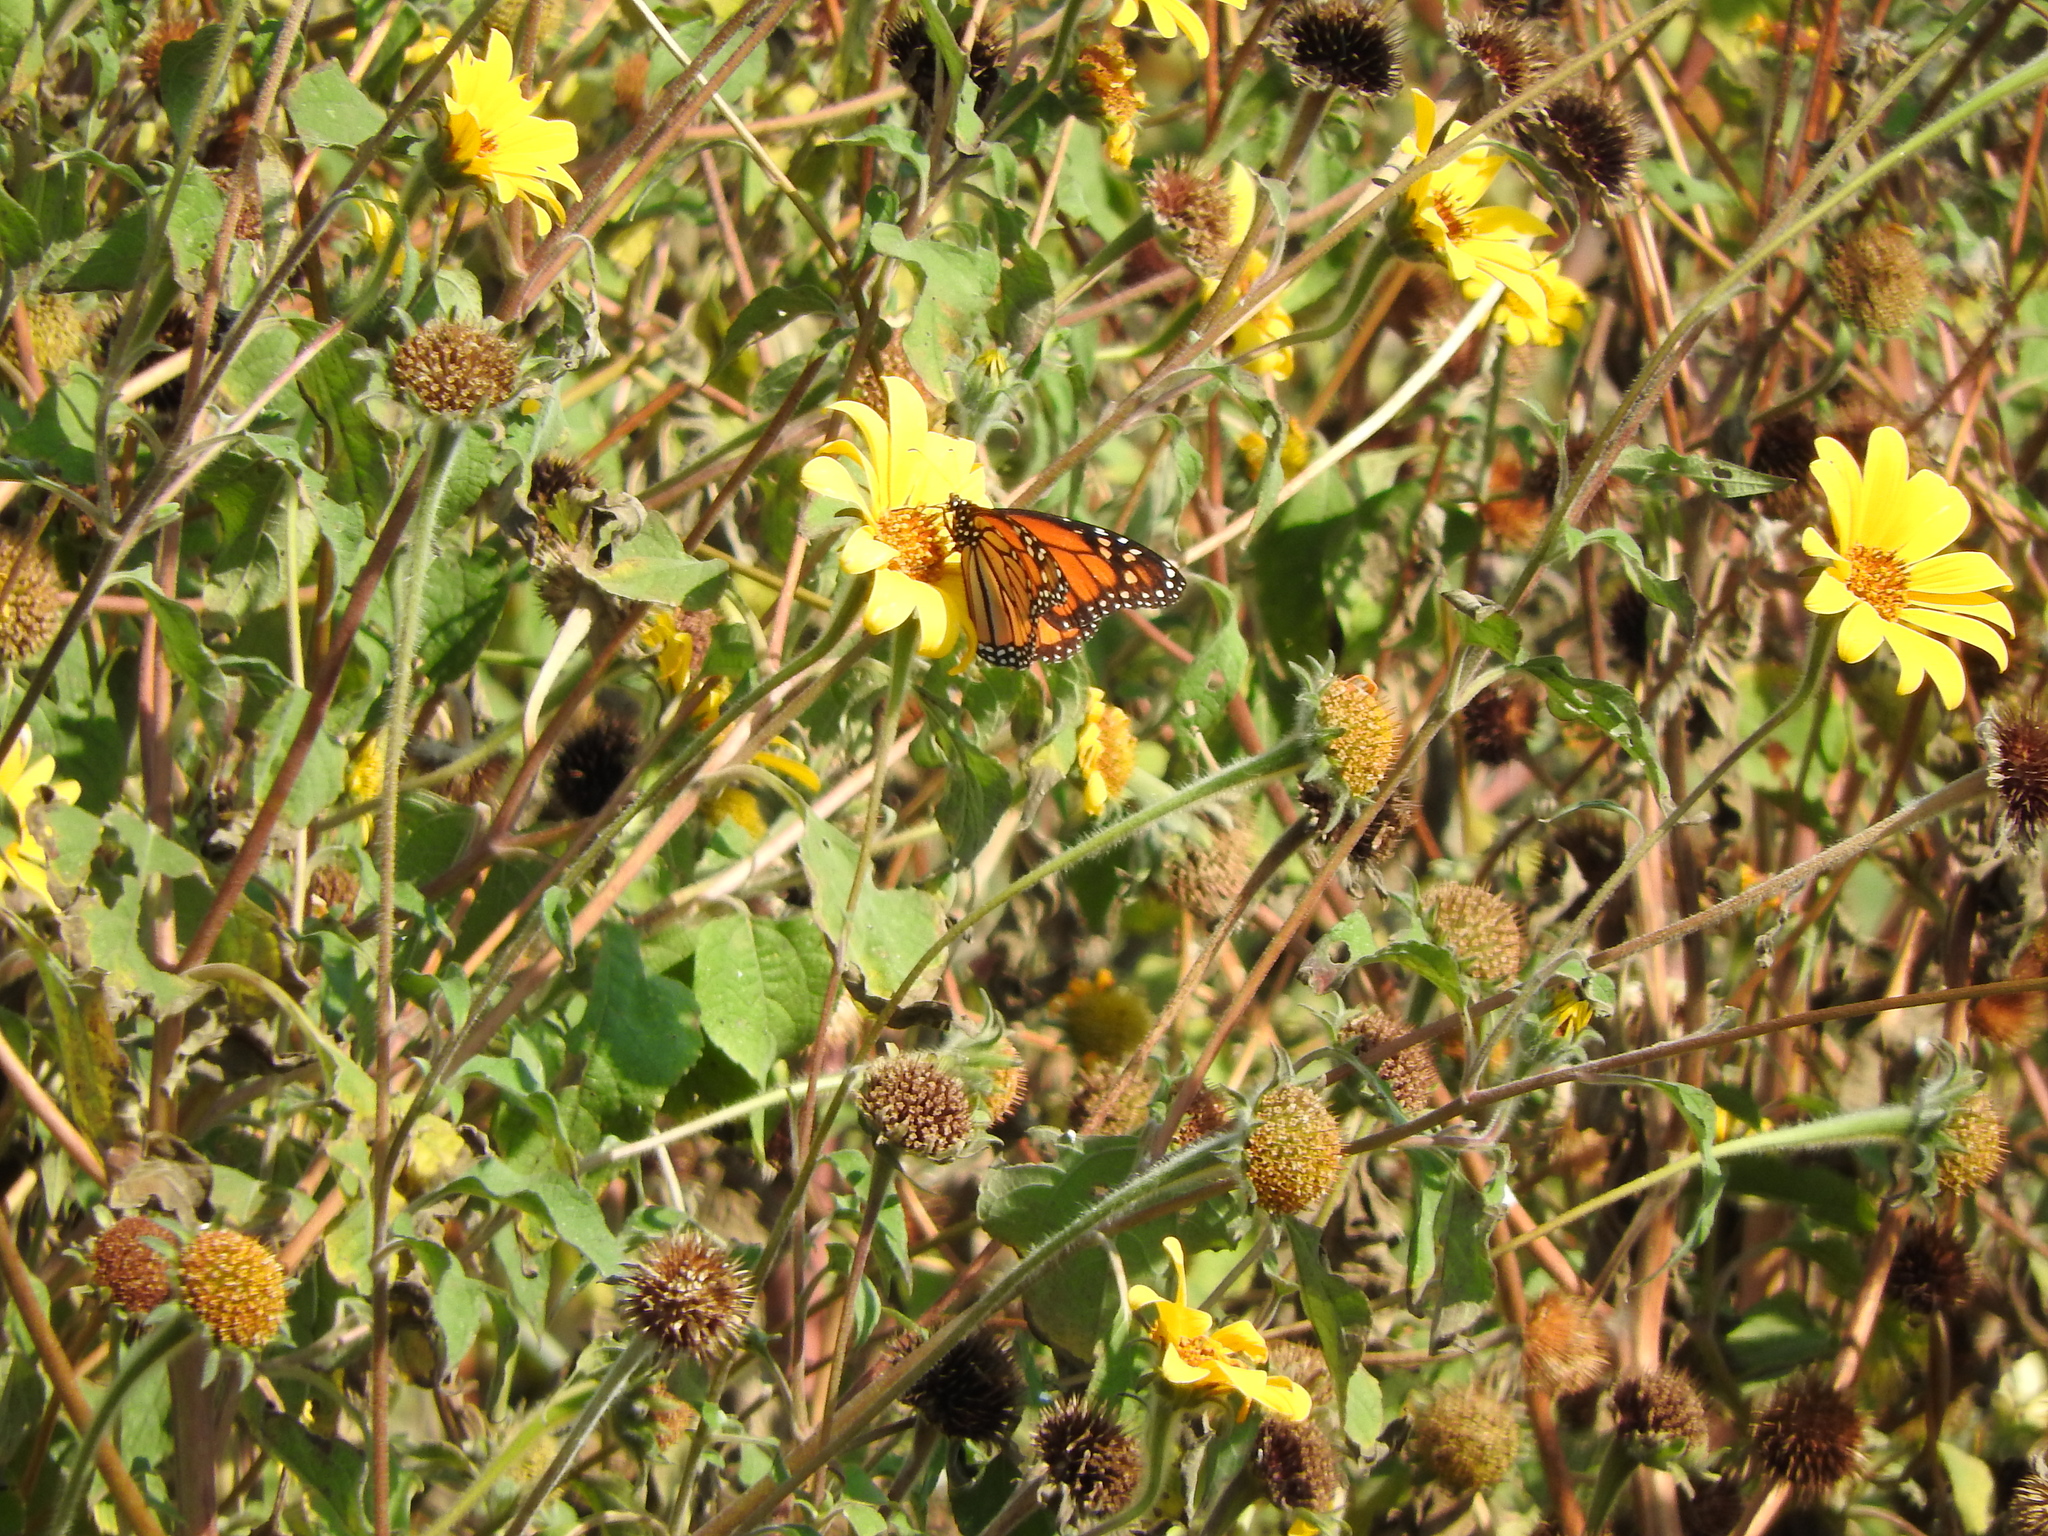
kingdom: Animalia
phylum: Arthropoda
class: Insecta
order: Lepidoptera
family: Nymphalidae
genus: Danaus
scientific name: Danaus plexippus
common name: Monarch
